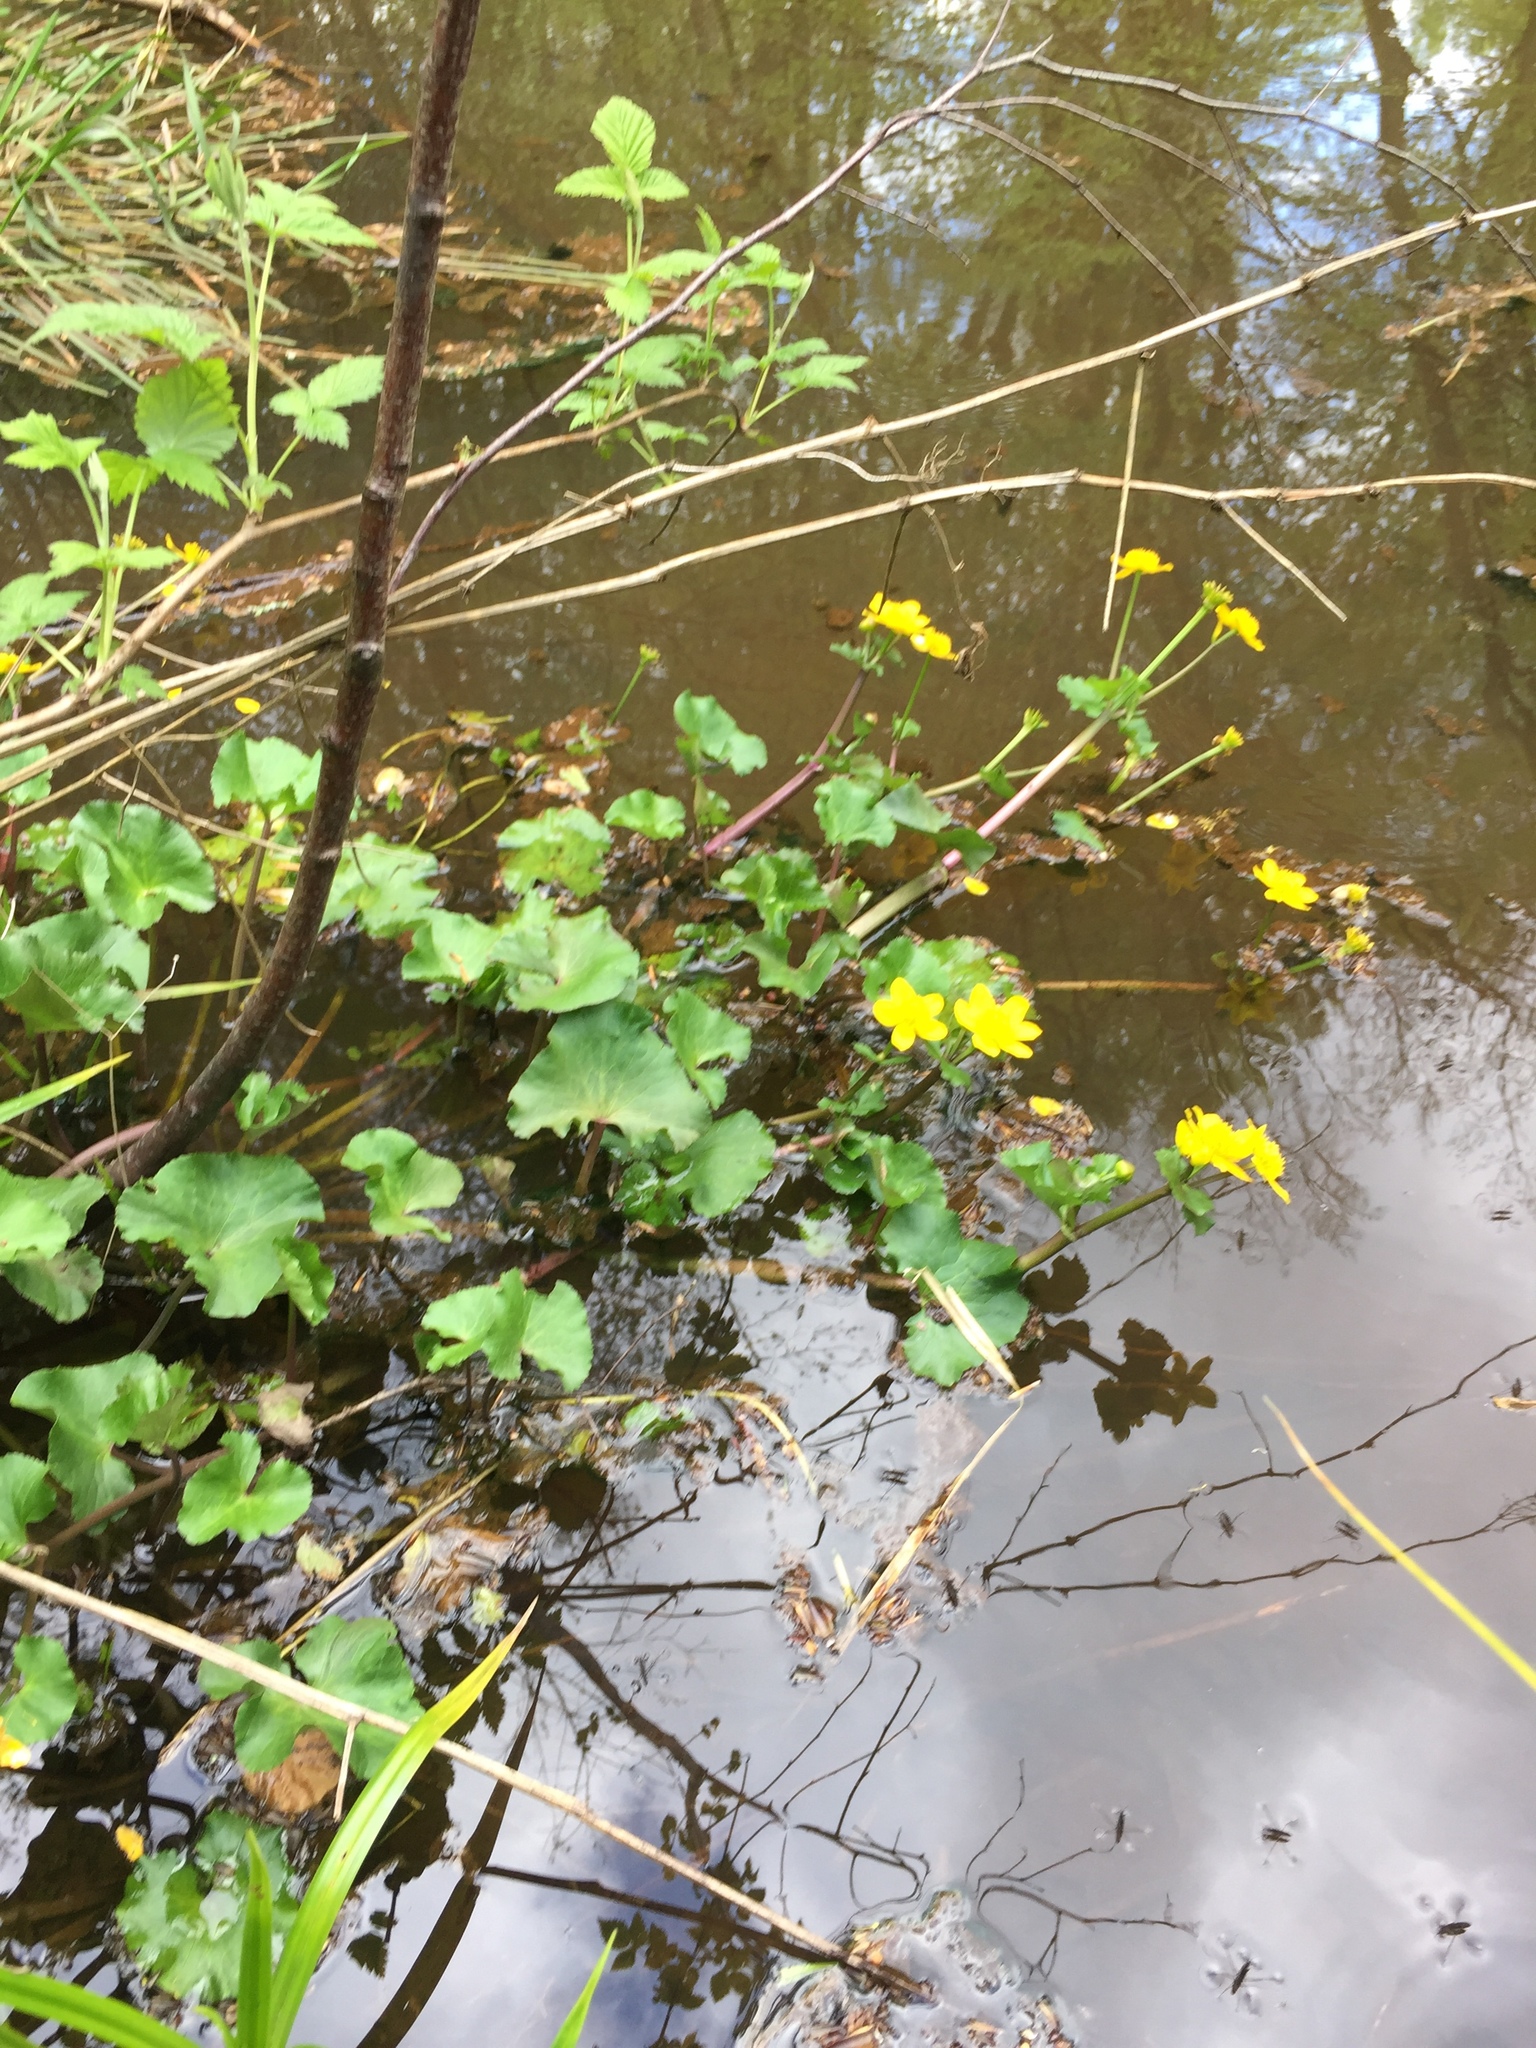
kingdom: Plantae
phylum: Tracheophyta
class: Magnoliopsida
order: Ranunculales
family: Ranunculaceae
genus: Caltha
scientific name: Caltha palustris
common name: Marsh marigold
